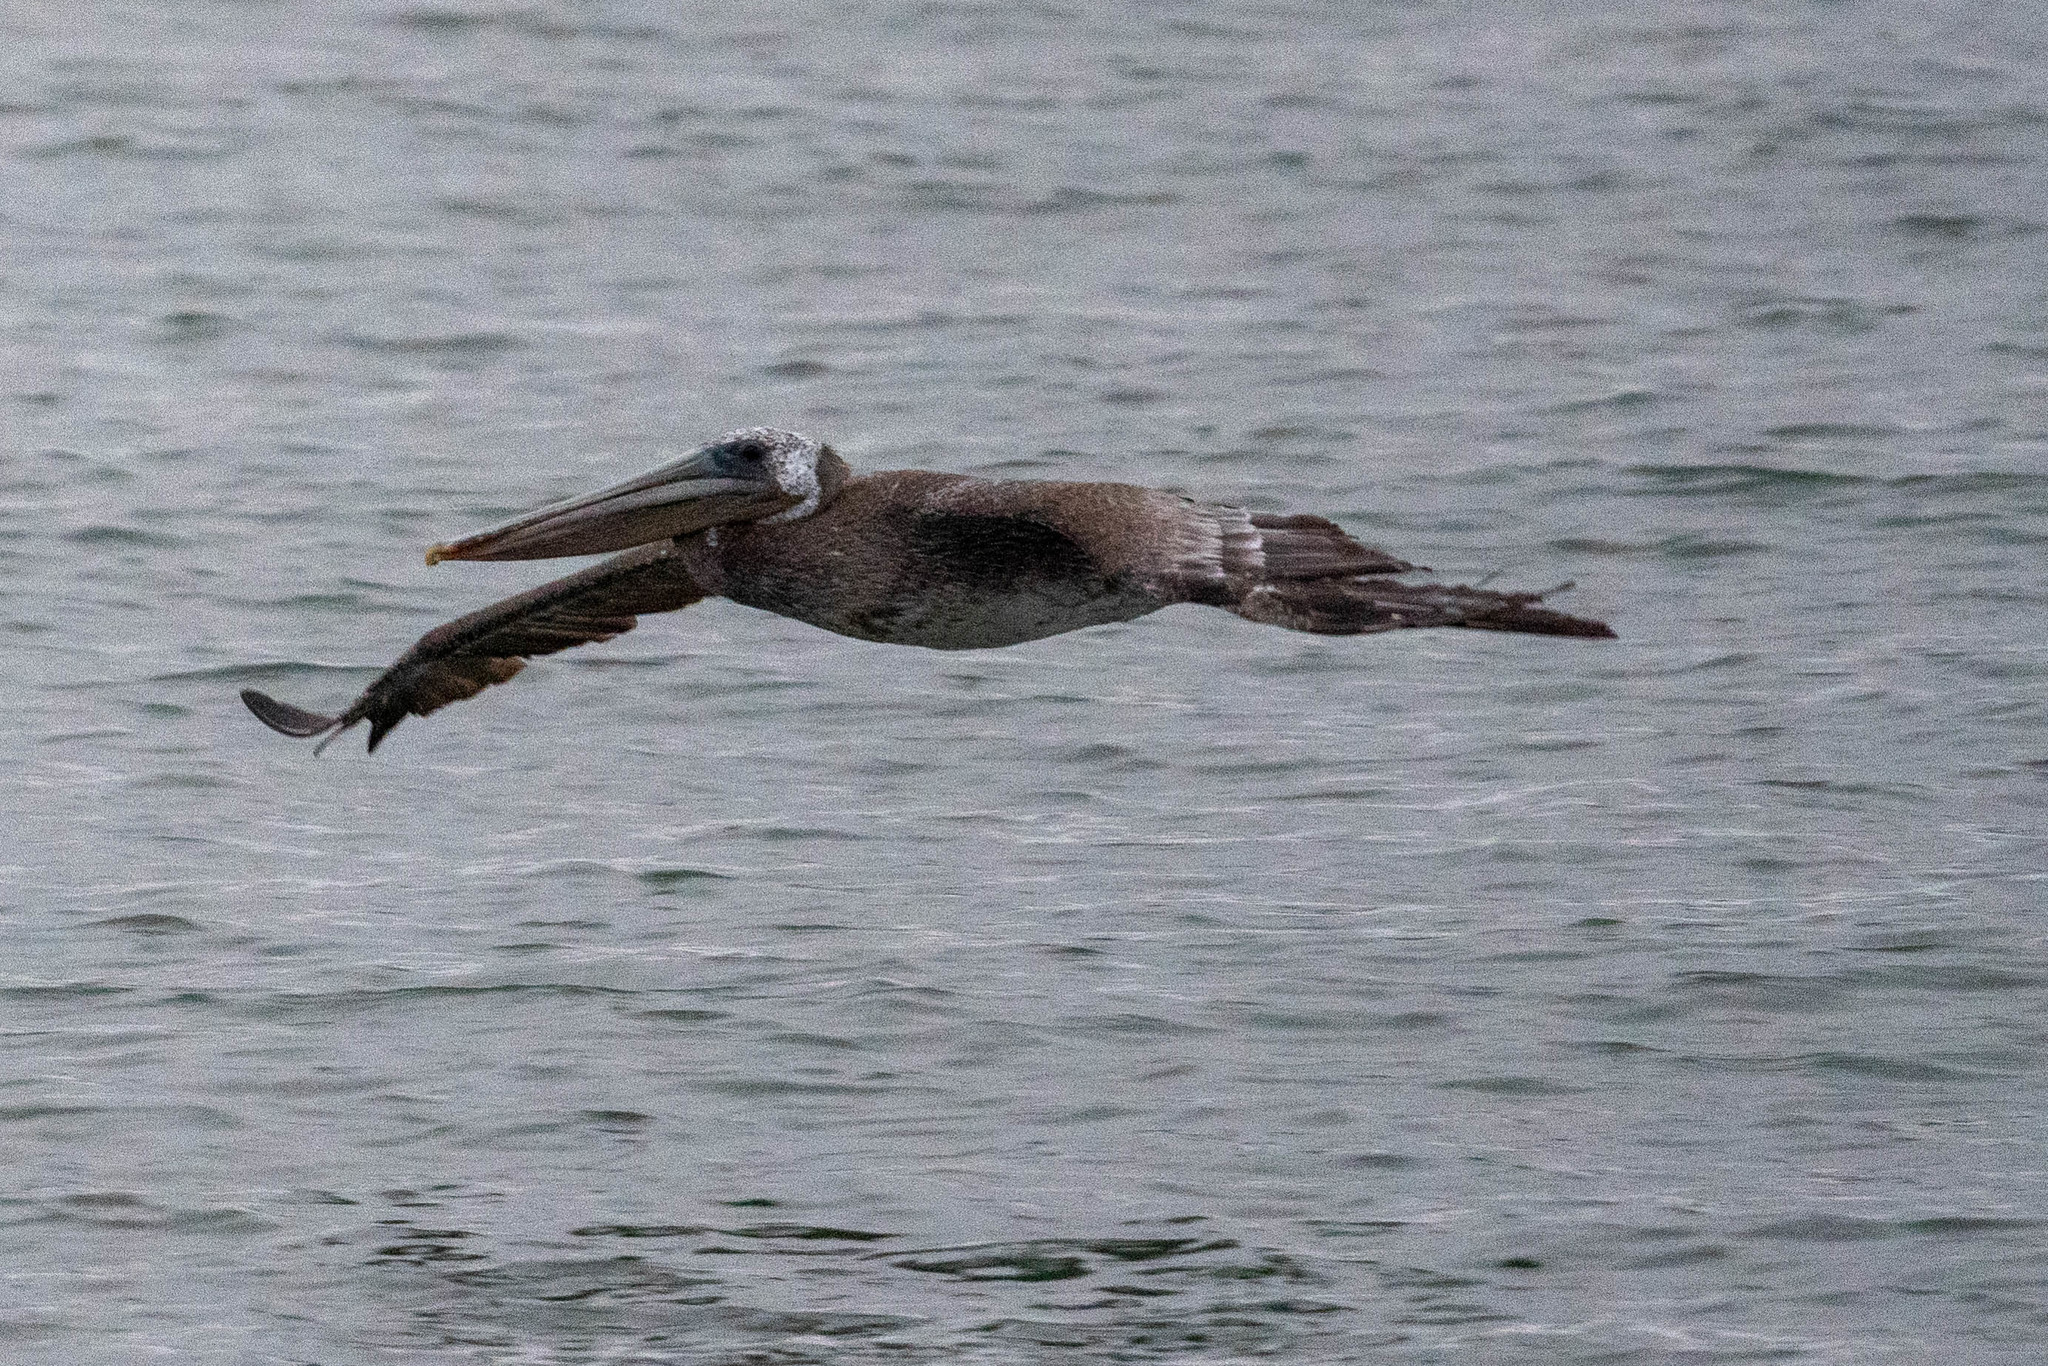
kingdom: Animalia
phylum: Chordata
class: Aves
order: Pelecaniformes
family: Pelecanidae
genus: Pelecanus
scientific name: Pelecanus occidentalis
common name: Brown pelican
